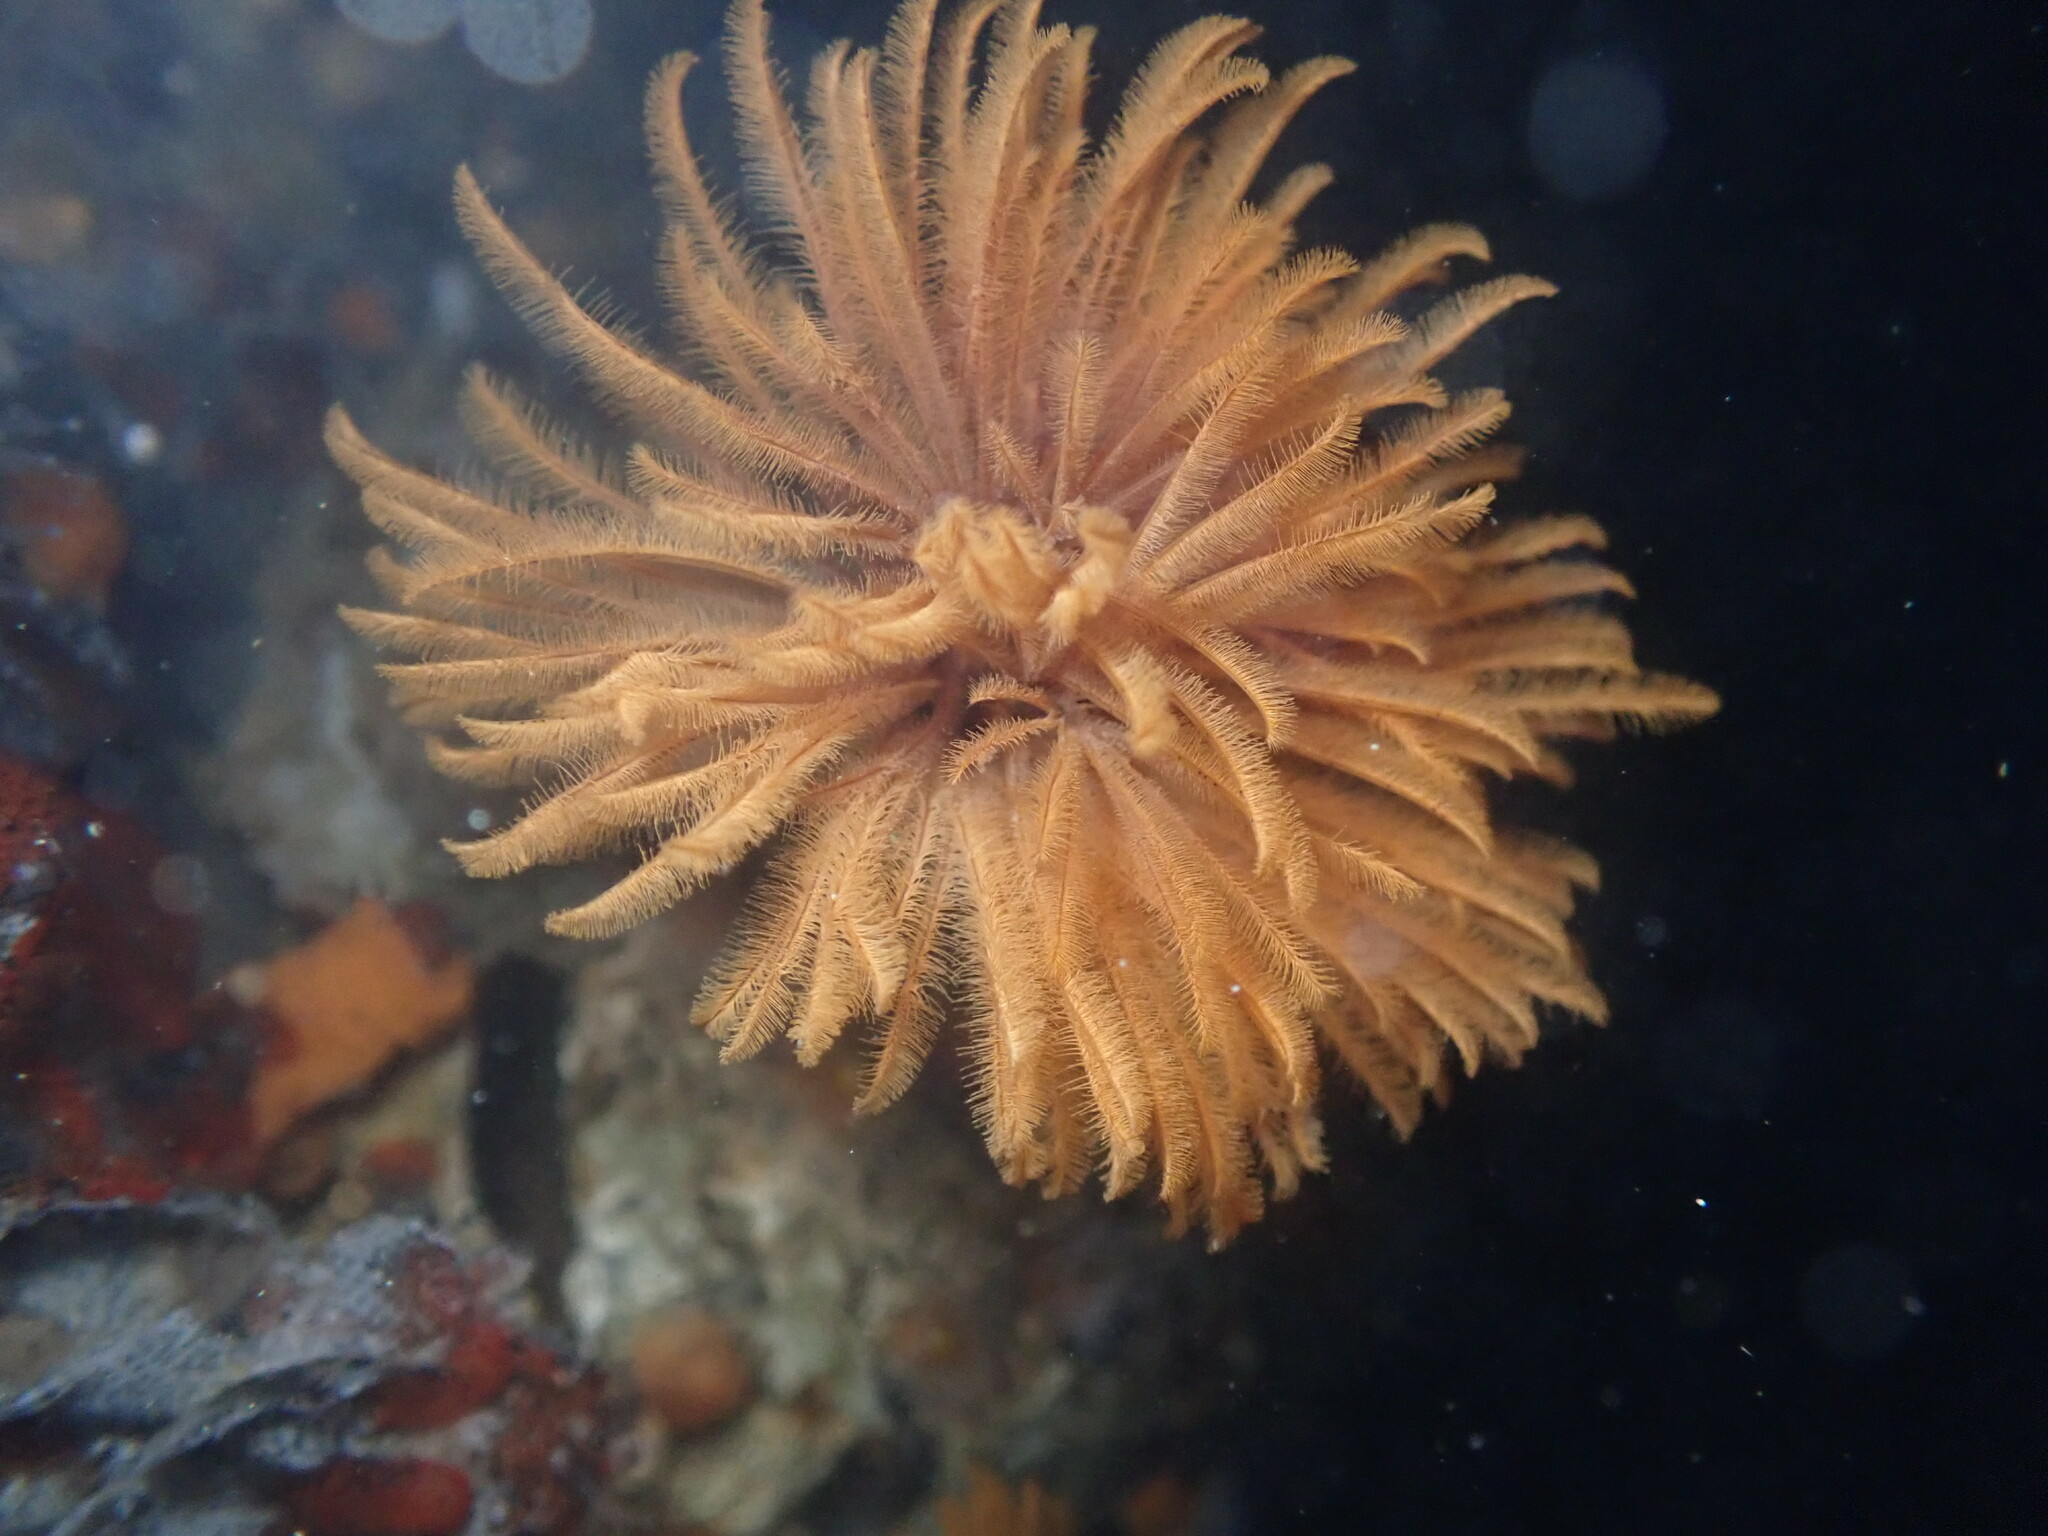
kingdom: Animalia
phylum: Annelida
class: Polychaeta
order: Sabellida
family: Sabellidae
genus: Eudistylia
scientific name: Eudistylia polymorpha
